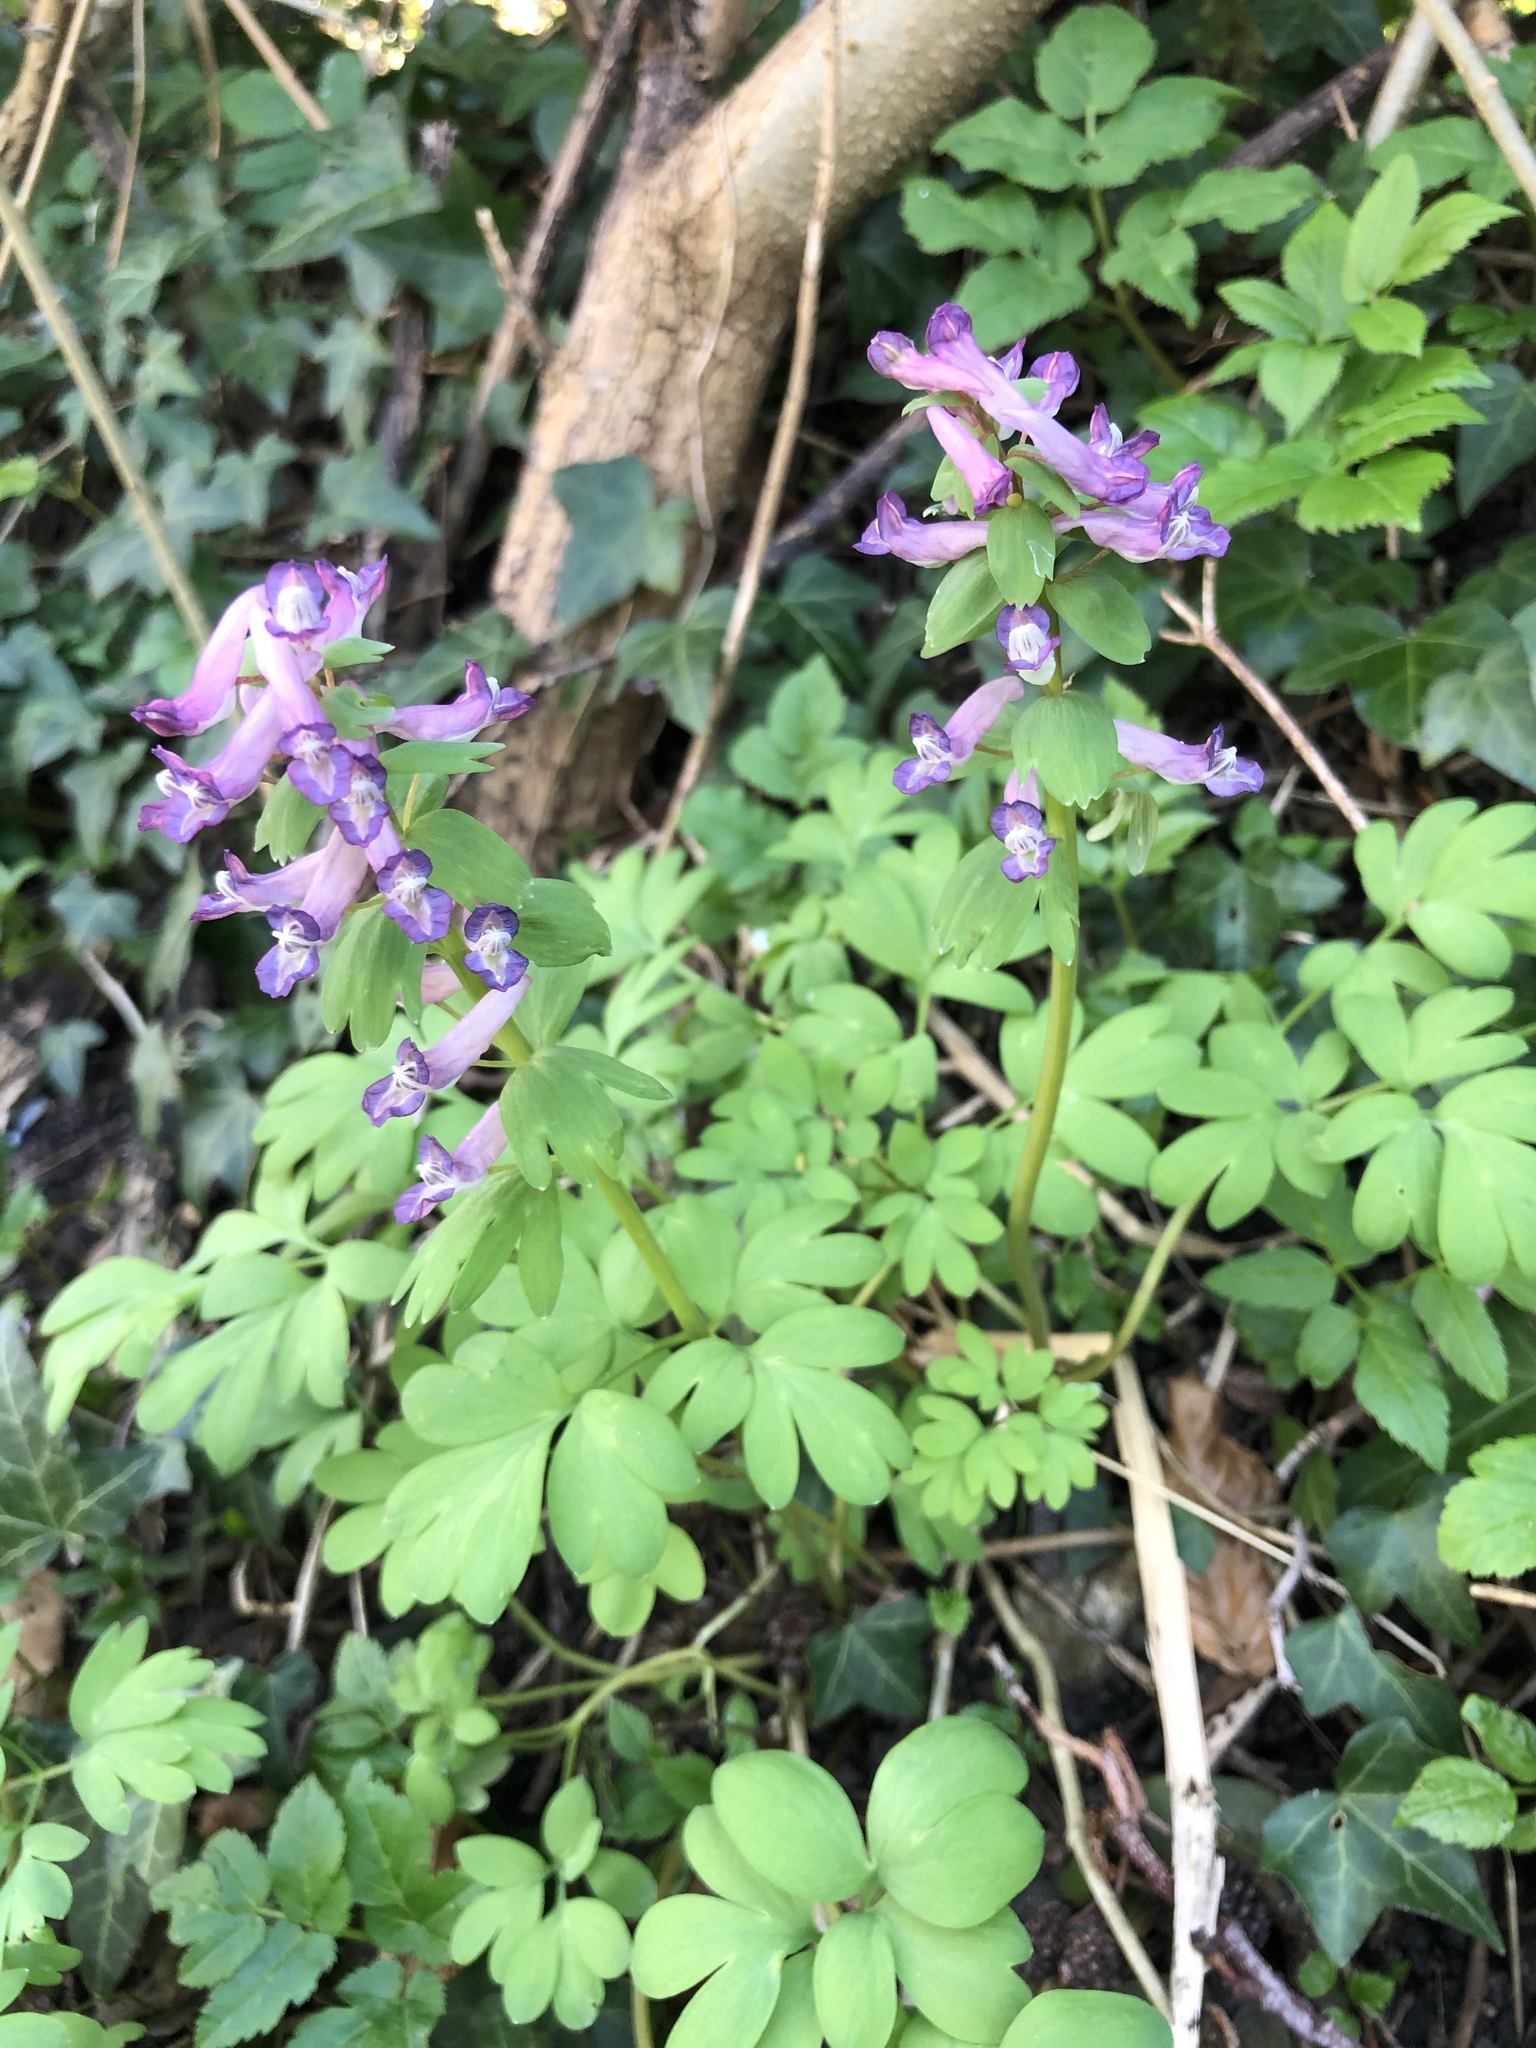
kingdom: Plantae
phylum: Tracheophyta
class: Magnoliopsida
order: Ranunculales
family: Papaveraceae
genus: Corydalis
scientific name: Corydalis solida
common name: Bird-in-a-bush
